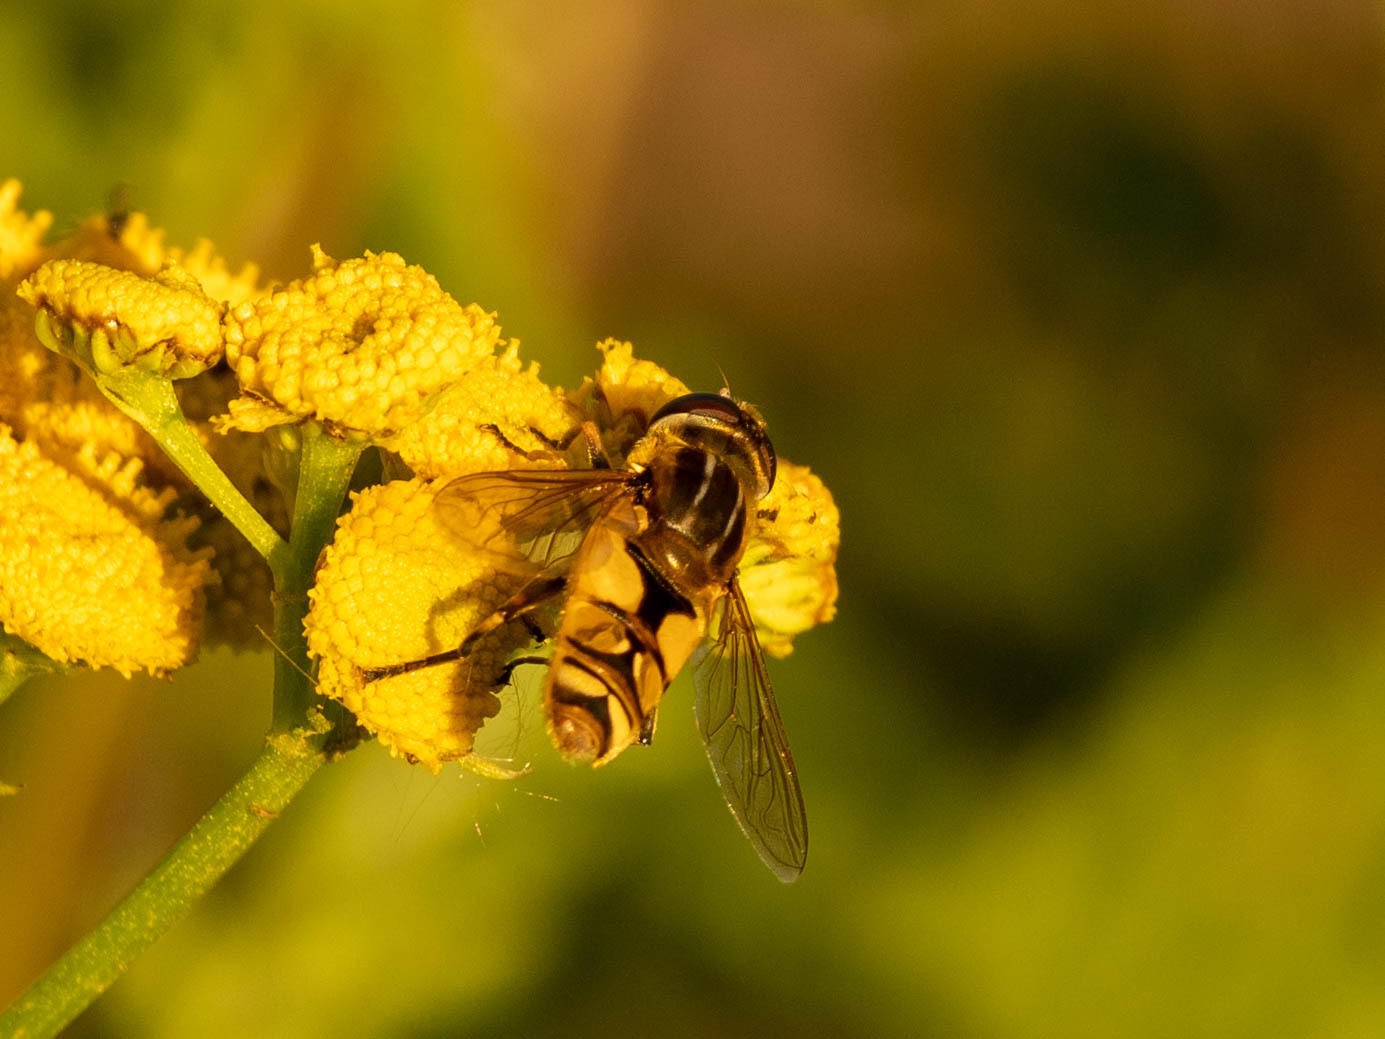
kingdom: Animalia
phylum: Arthropoda
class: Insecta
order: Diptera
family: Syrphidae
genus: Helophilus
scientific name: Helophilus hybridus
